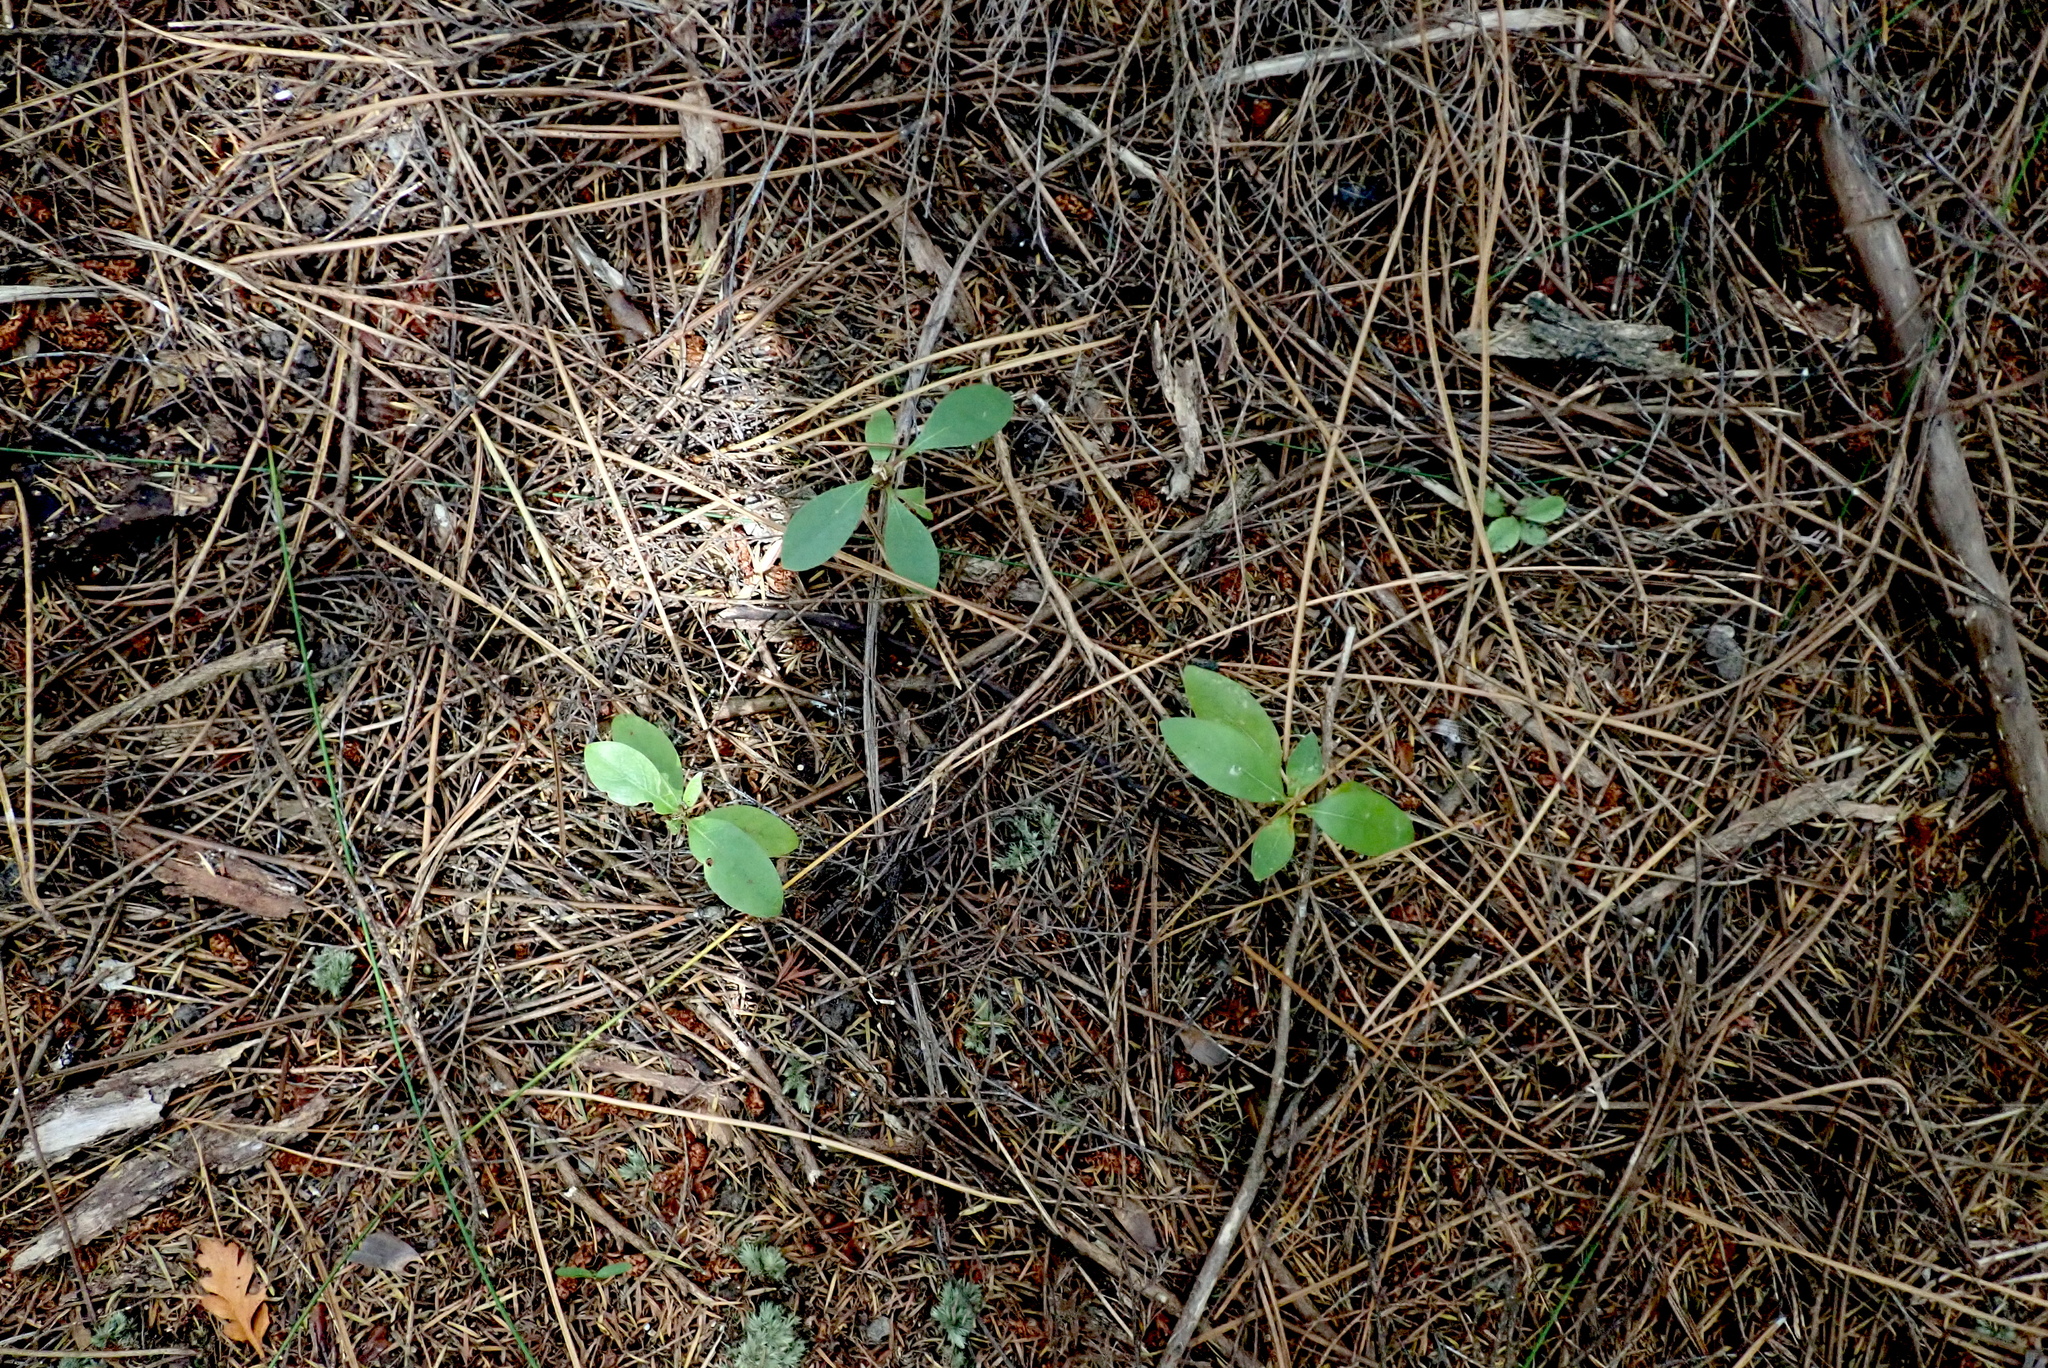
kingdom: Plantae
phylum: Tracheophyta
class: Magnoliopsida
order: Gentianales
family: Rubiaceae
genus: Coprosma
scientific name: Coprosma lucida
